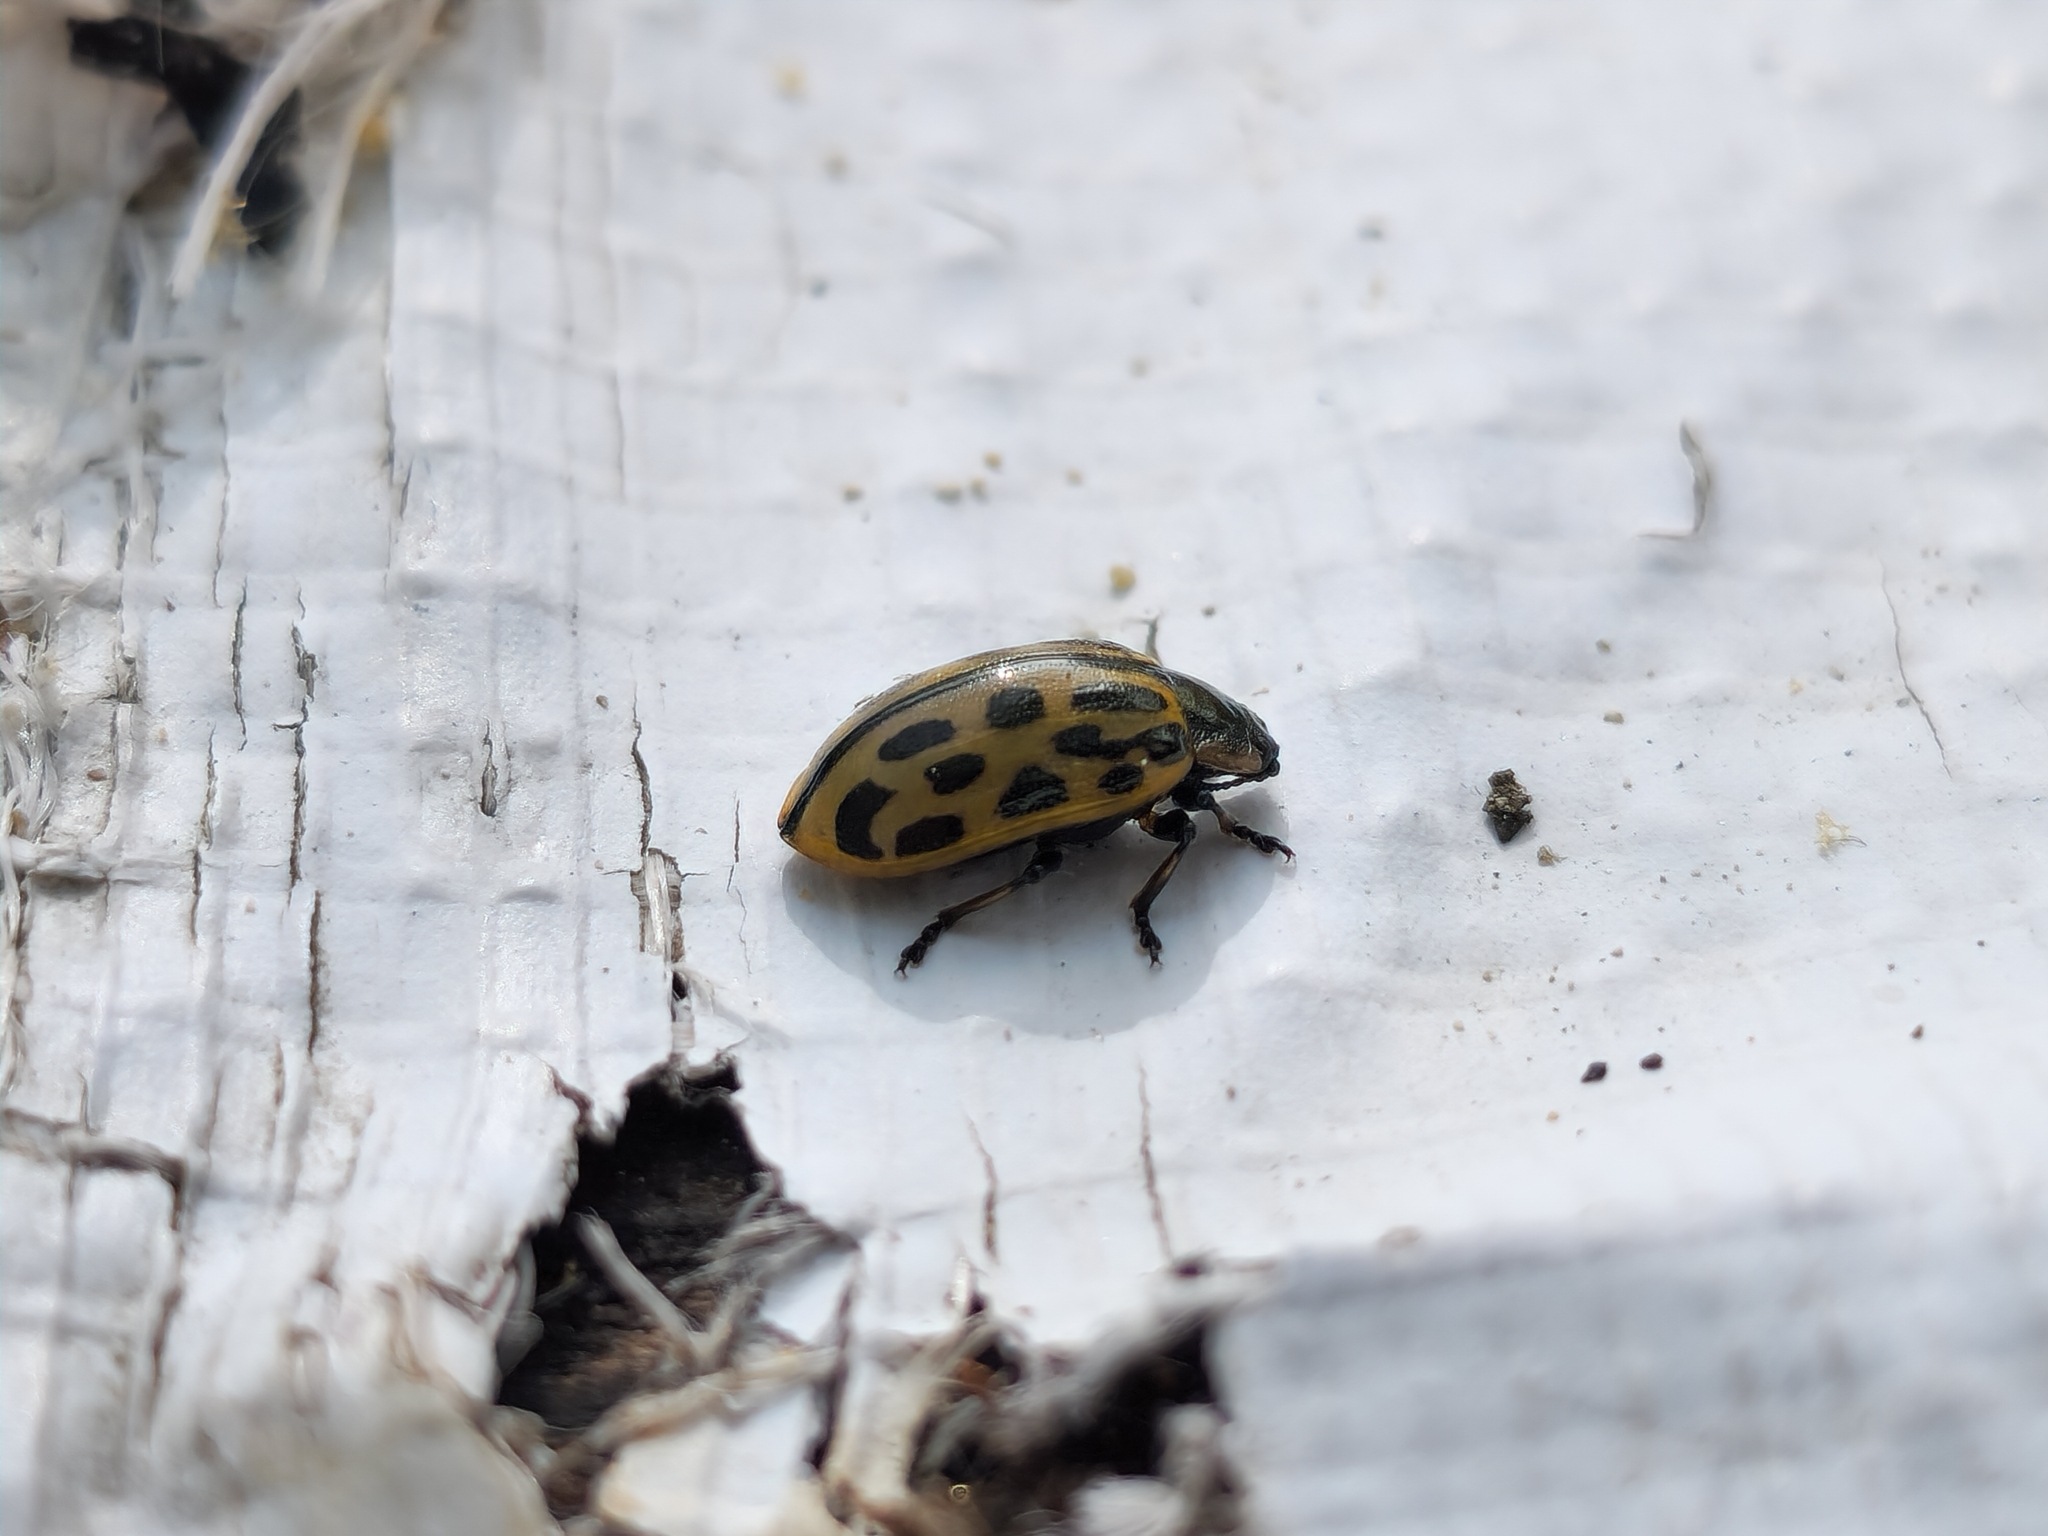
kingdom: Animalia
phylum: Arthropoda
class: Insecta
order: Coleoptera
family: Chrysomelidae
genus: Chrysomela
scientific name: Chrysomela vigintipunctata
